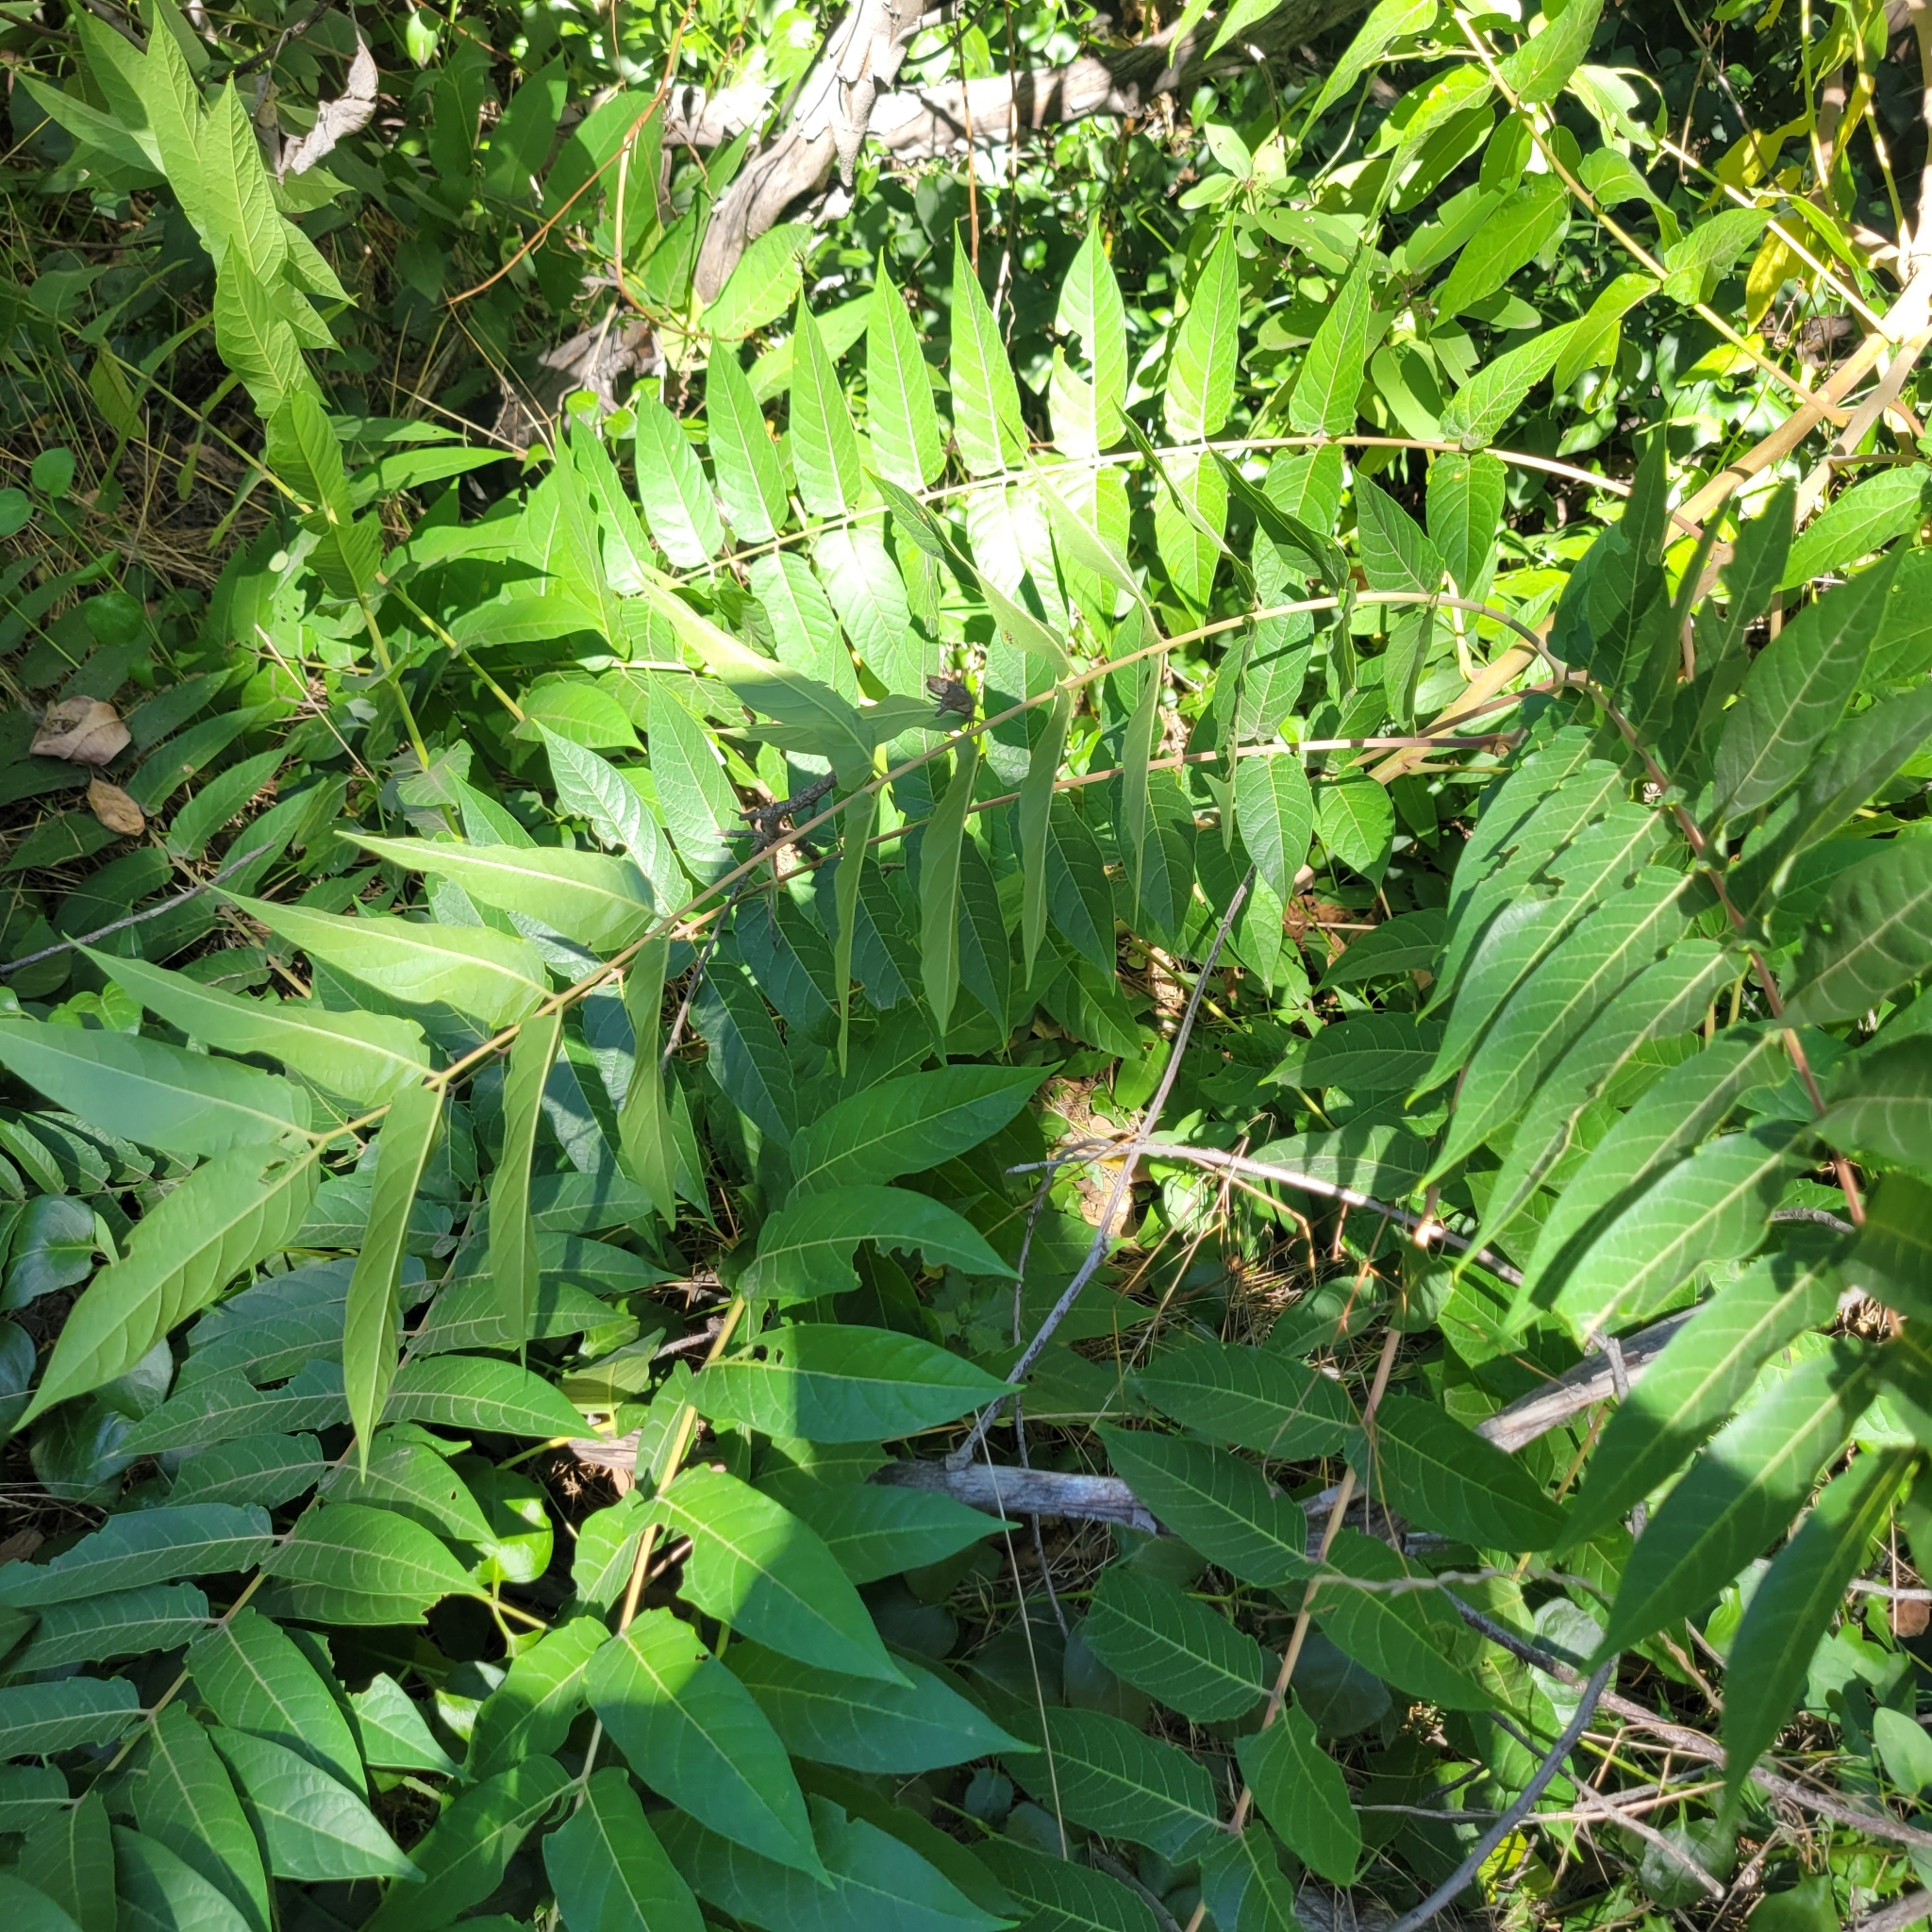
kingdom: Plantae
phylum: Tracheophyta
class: Magnoliopsida
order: Sapindales
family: Simaroubaceae
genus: Ailanthus
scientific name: Ailanthus altissima
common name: Tree-of-heaven
